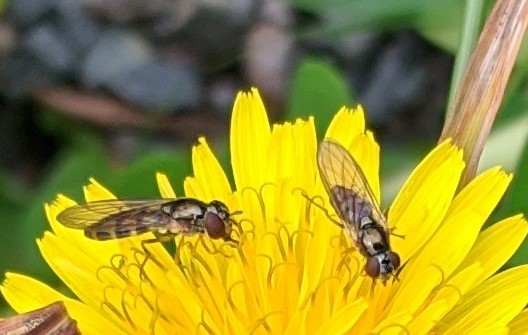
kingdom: Animalia
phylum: Arthropoda
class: Insecta
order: Diptera
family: Syrphidae
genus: Melanostoma
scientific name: Melanostoma mellina
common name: Hover fly
